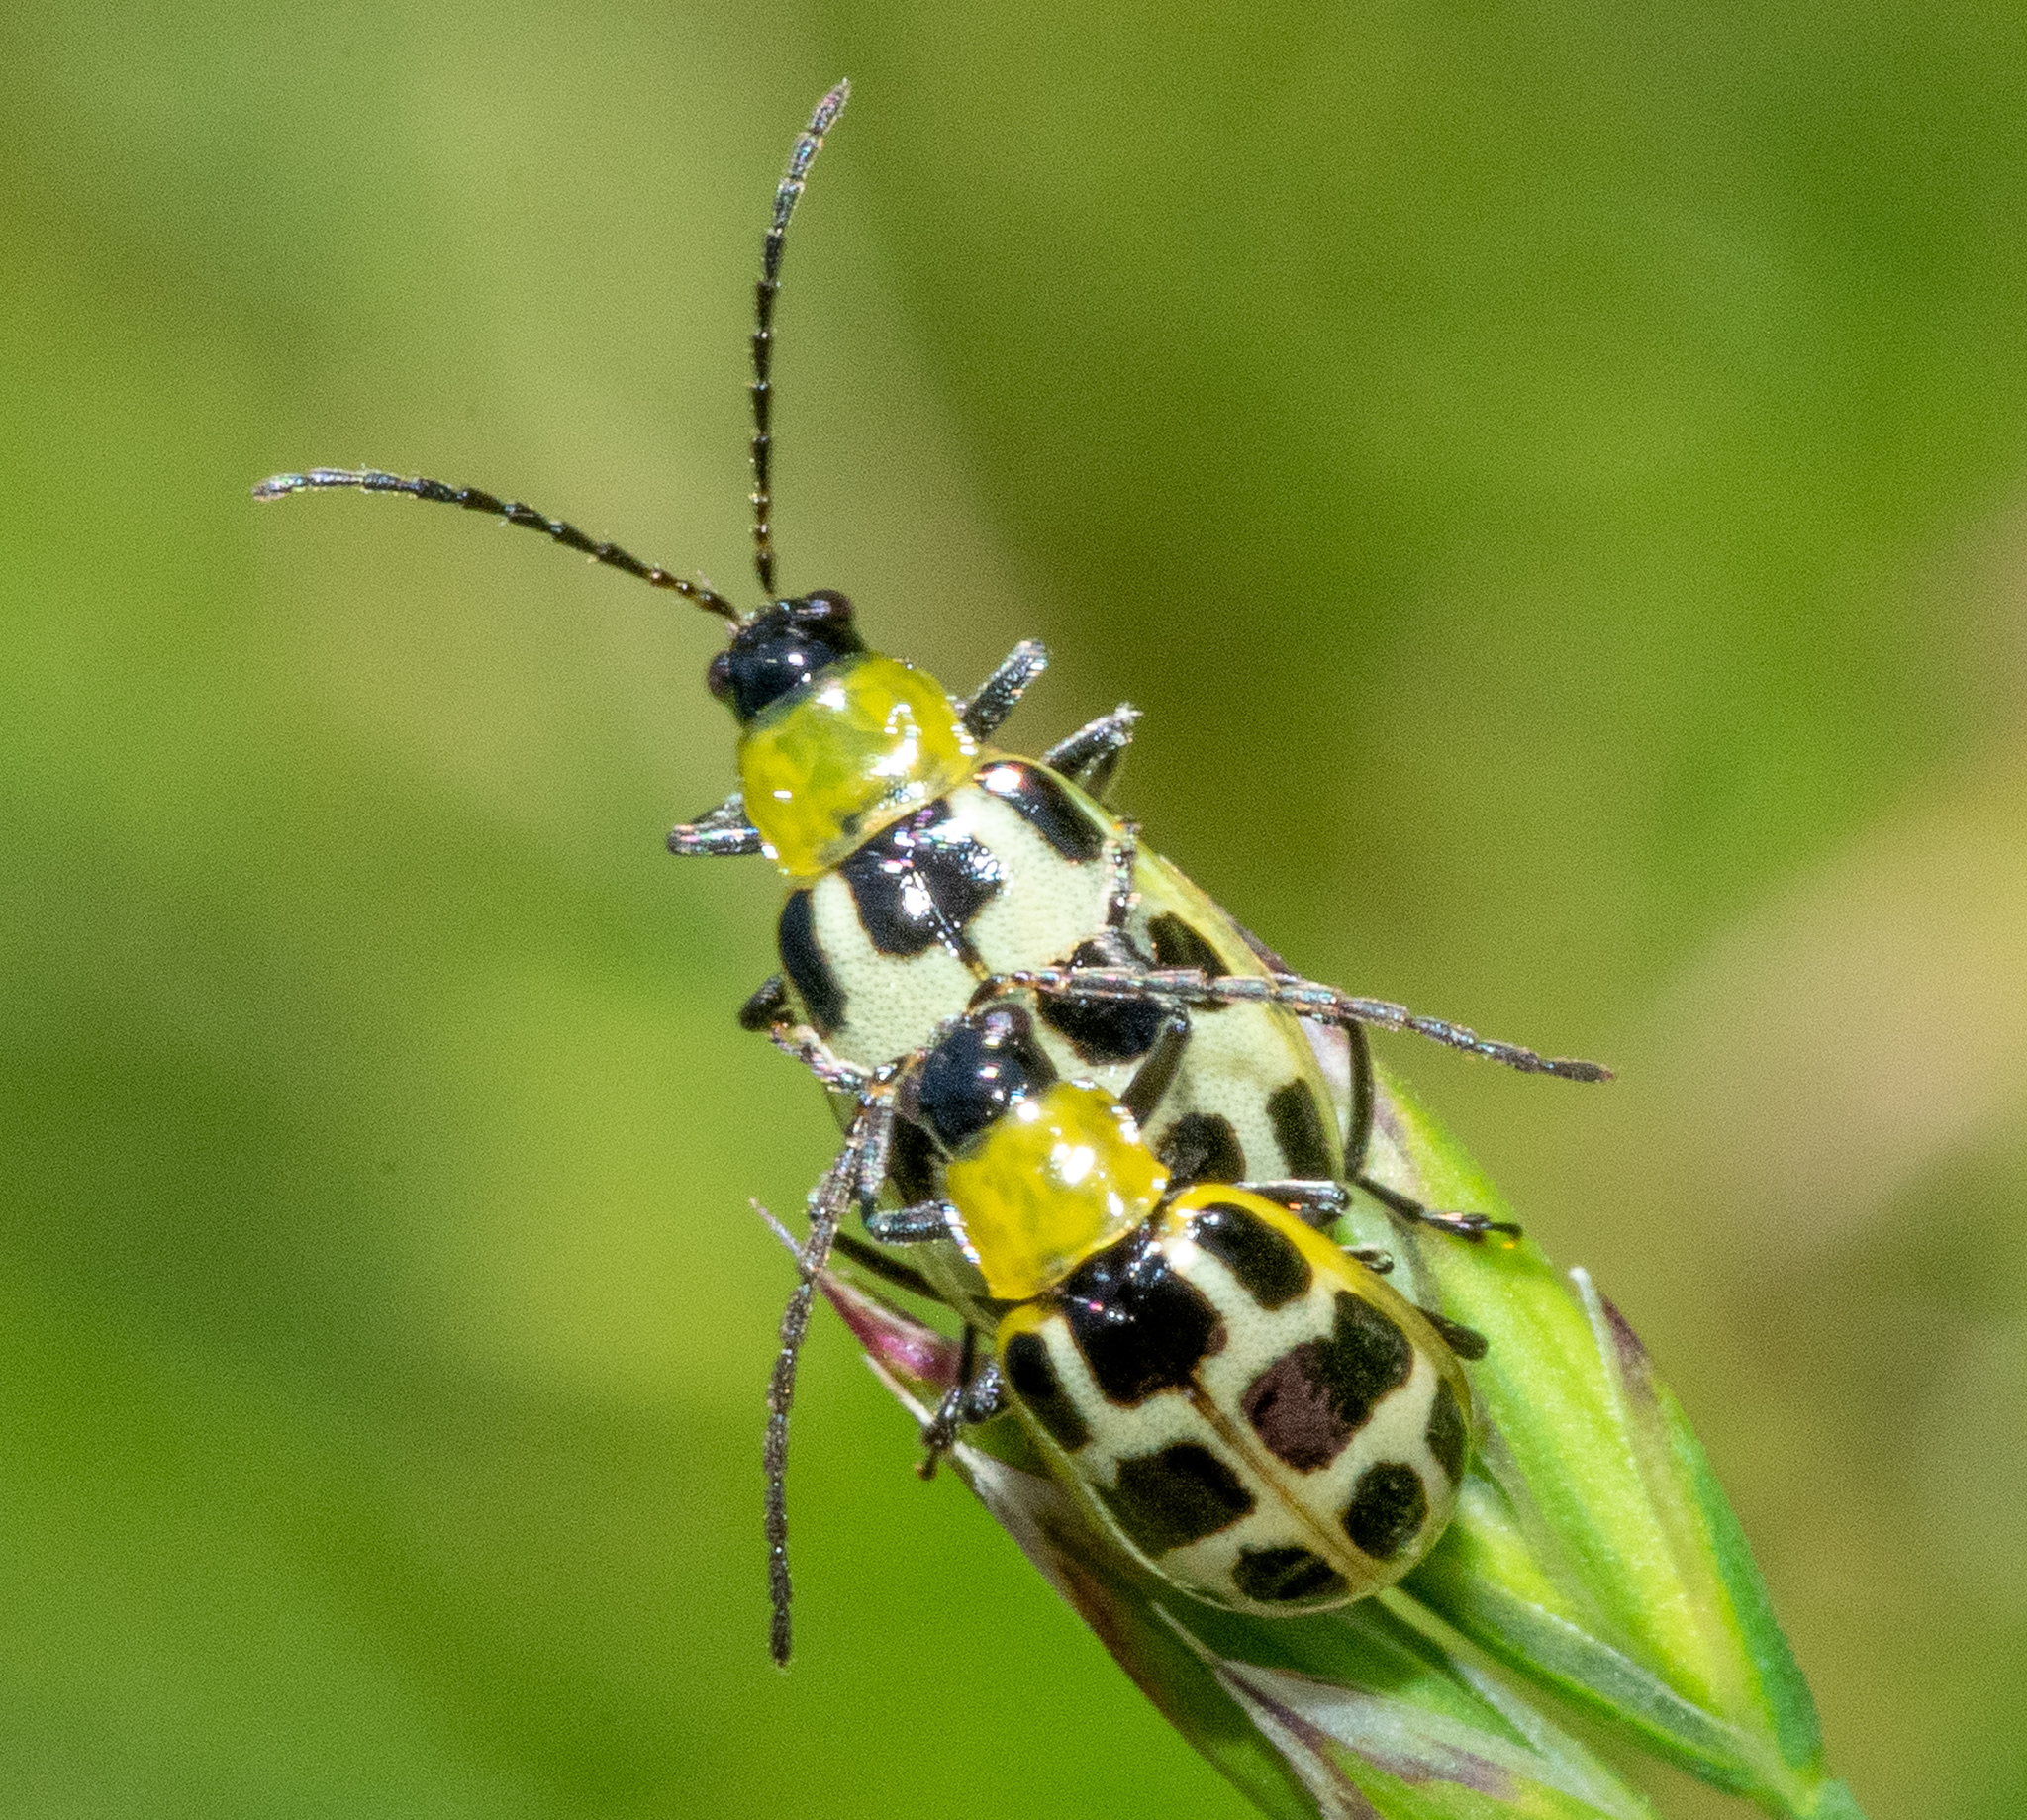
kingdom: Animalia
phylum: Arthropoda
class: Insecta
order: Coleoptera
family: Chrysomelidae
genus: Diabrotica
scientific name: Diabrotica undecimpunctata
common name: Spotted cucumber beetle
